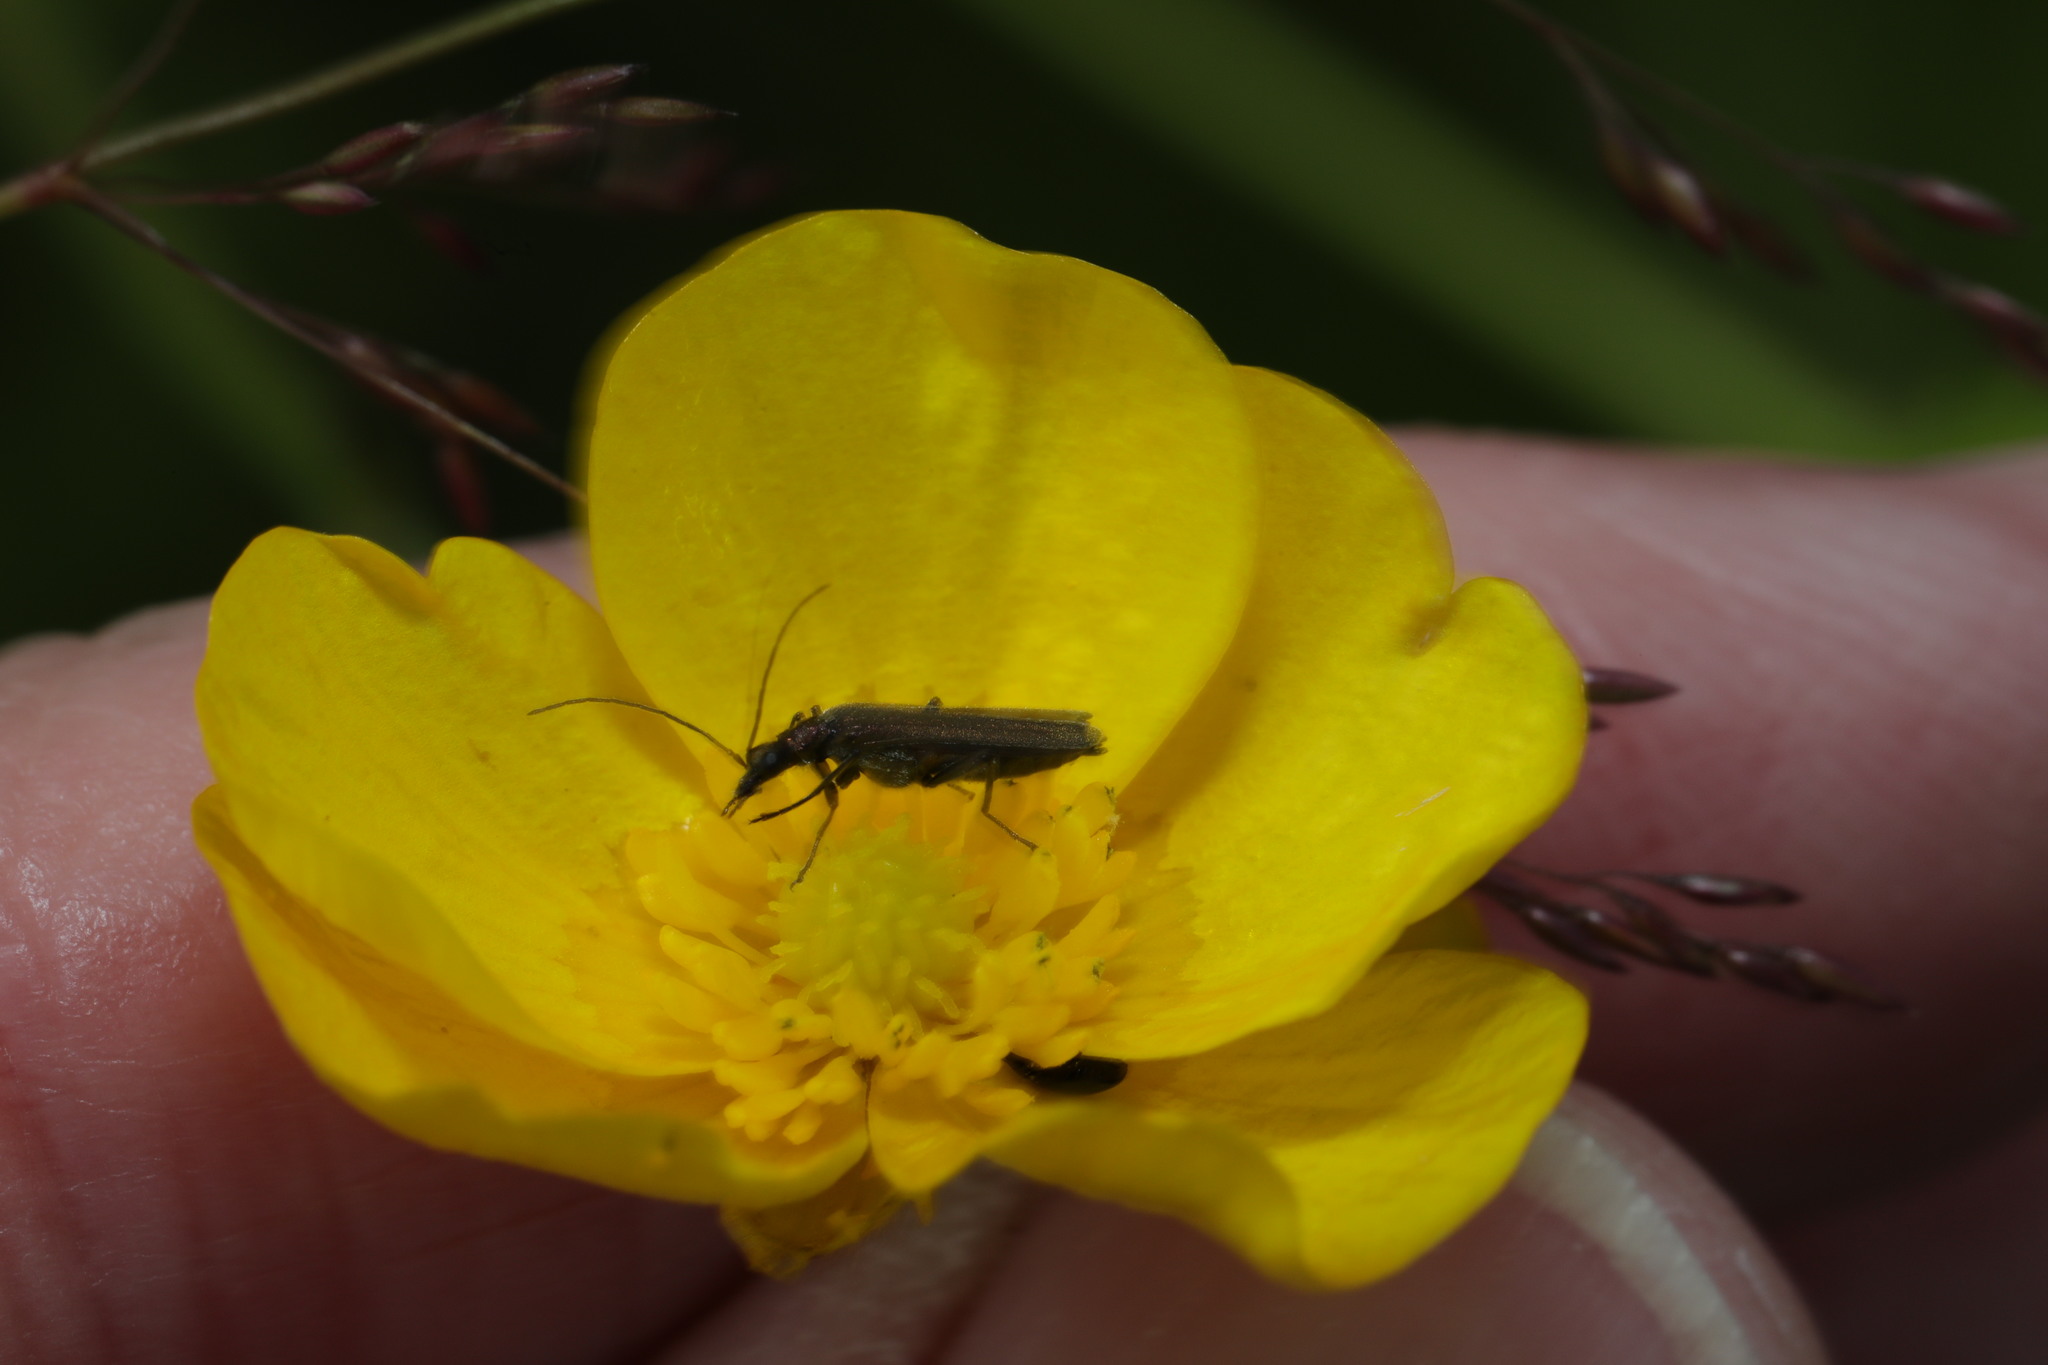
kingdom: Animalia
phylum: Arthropoda
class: Insecta
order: Coleoptera
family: Oedemeridae
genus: Oedemera
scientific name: Oedemera lurida
